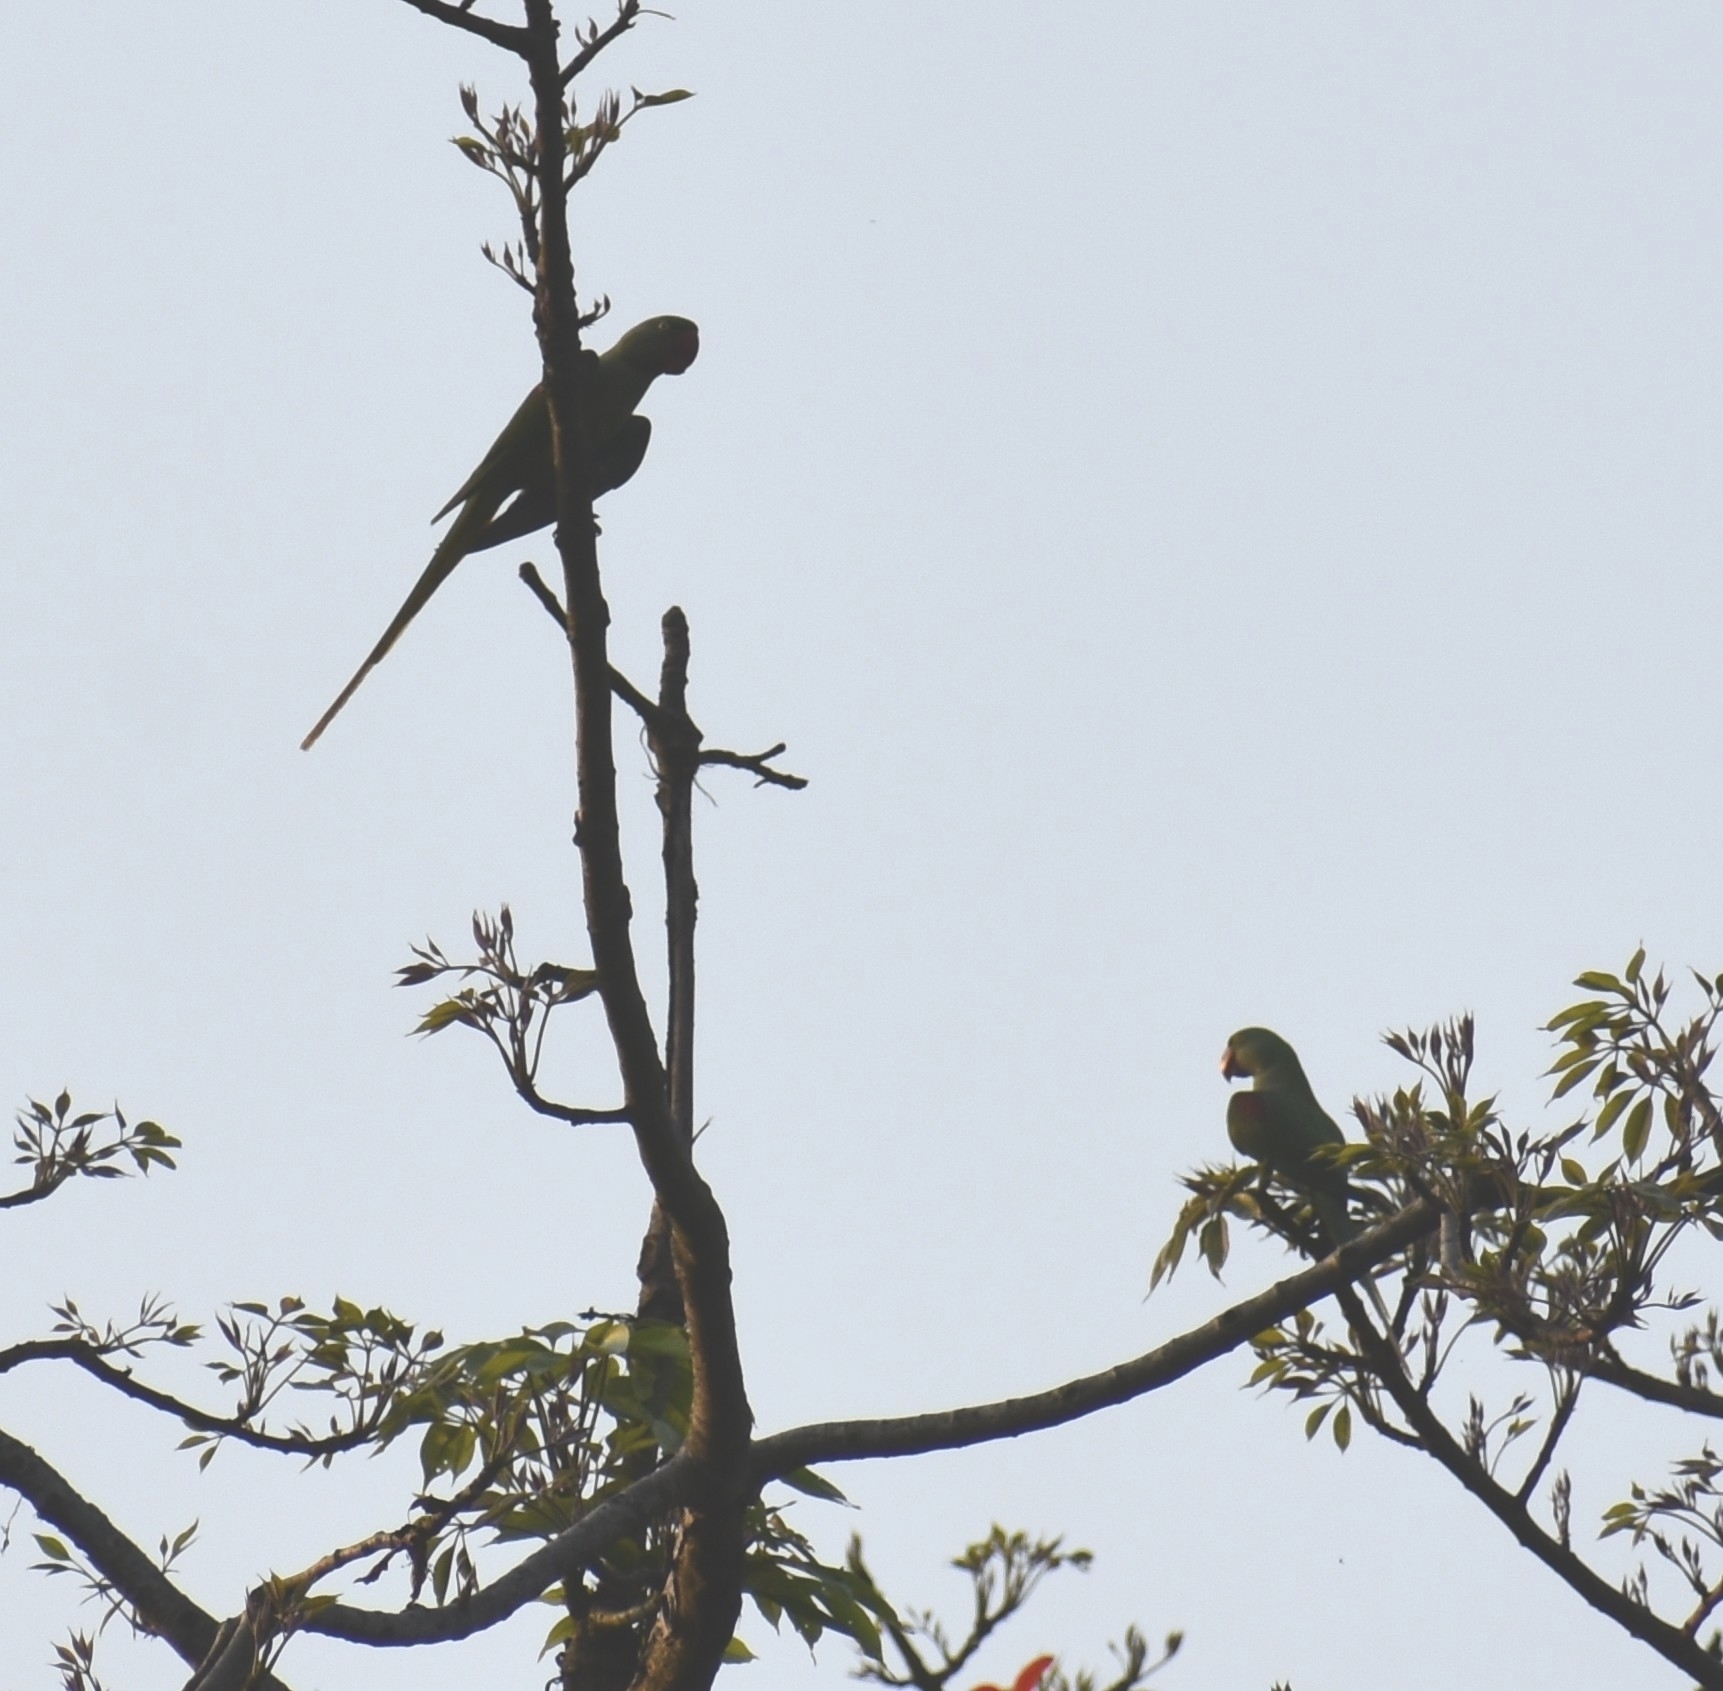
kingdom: Animalia
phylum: Chordata
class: Aves
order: Psittaciformes
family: Psittacidae
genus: Psittacula
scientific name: Psittacula krameri
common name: Rose-ringed parakeet
